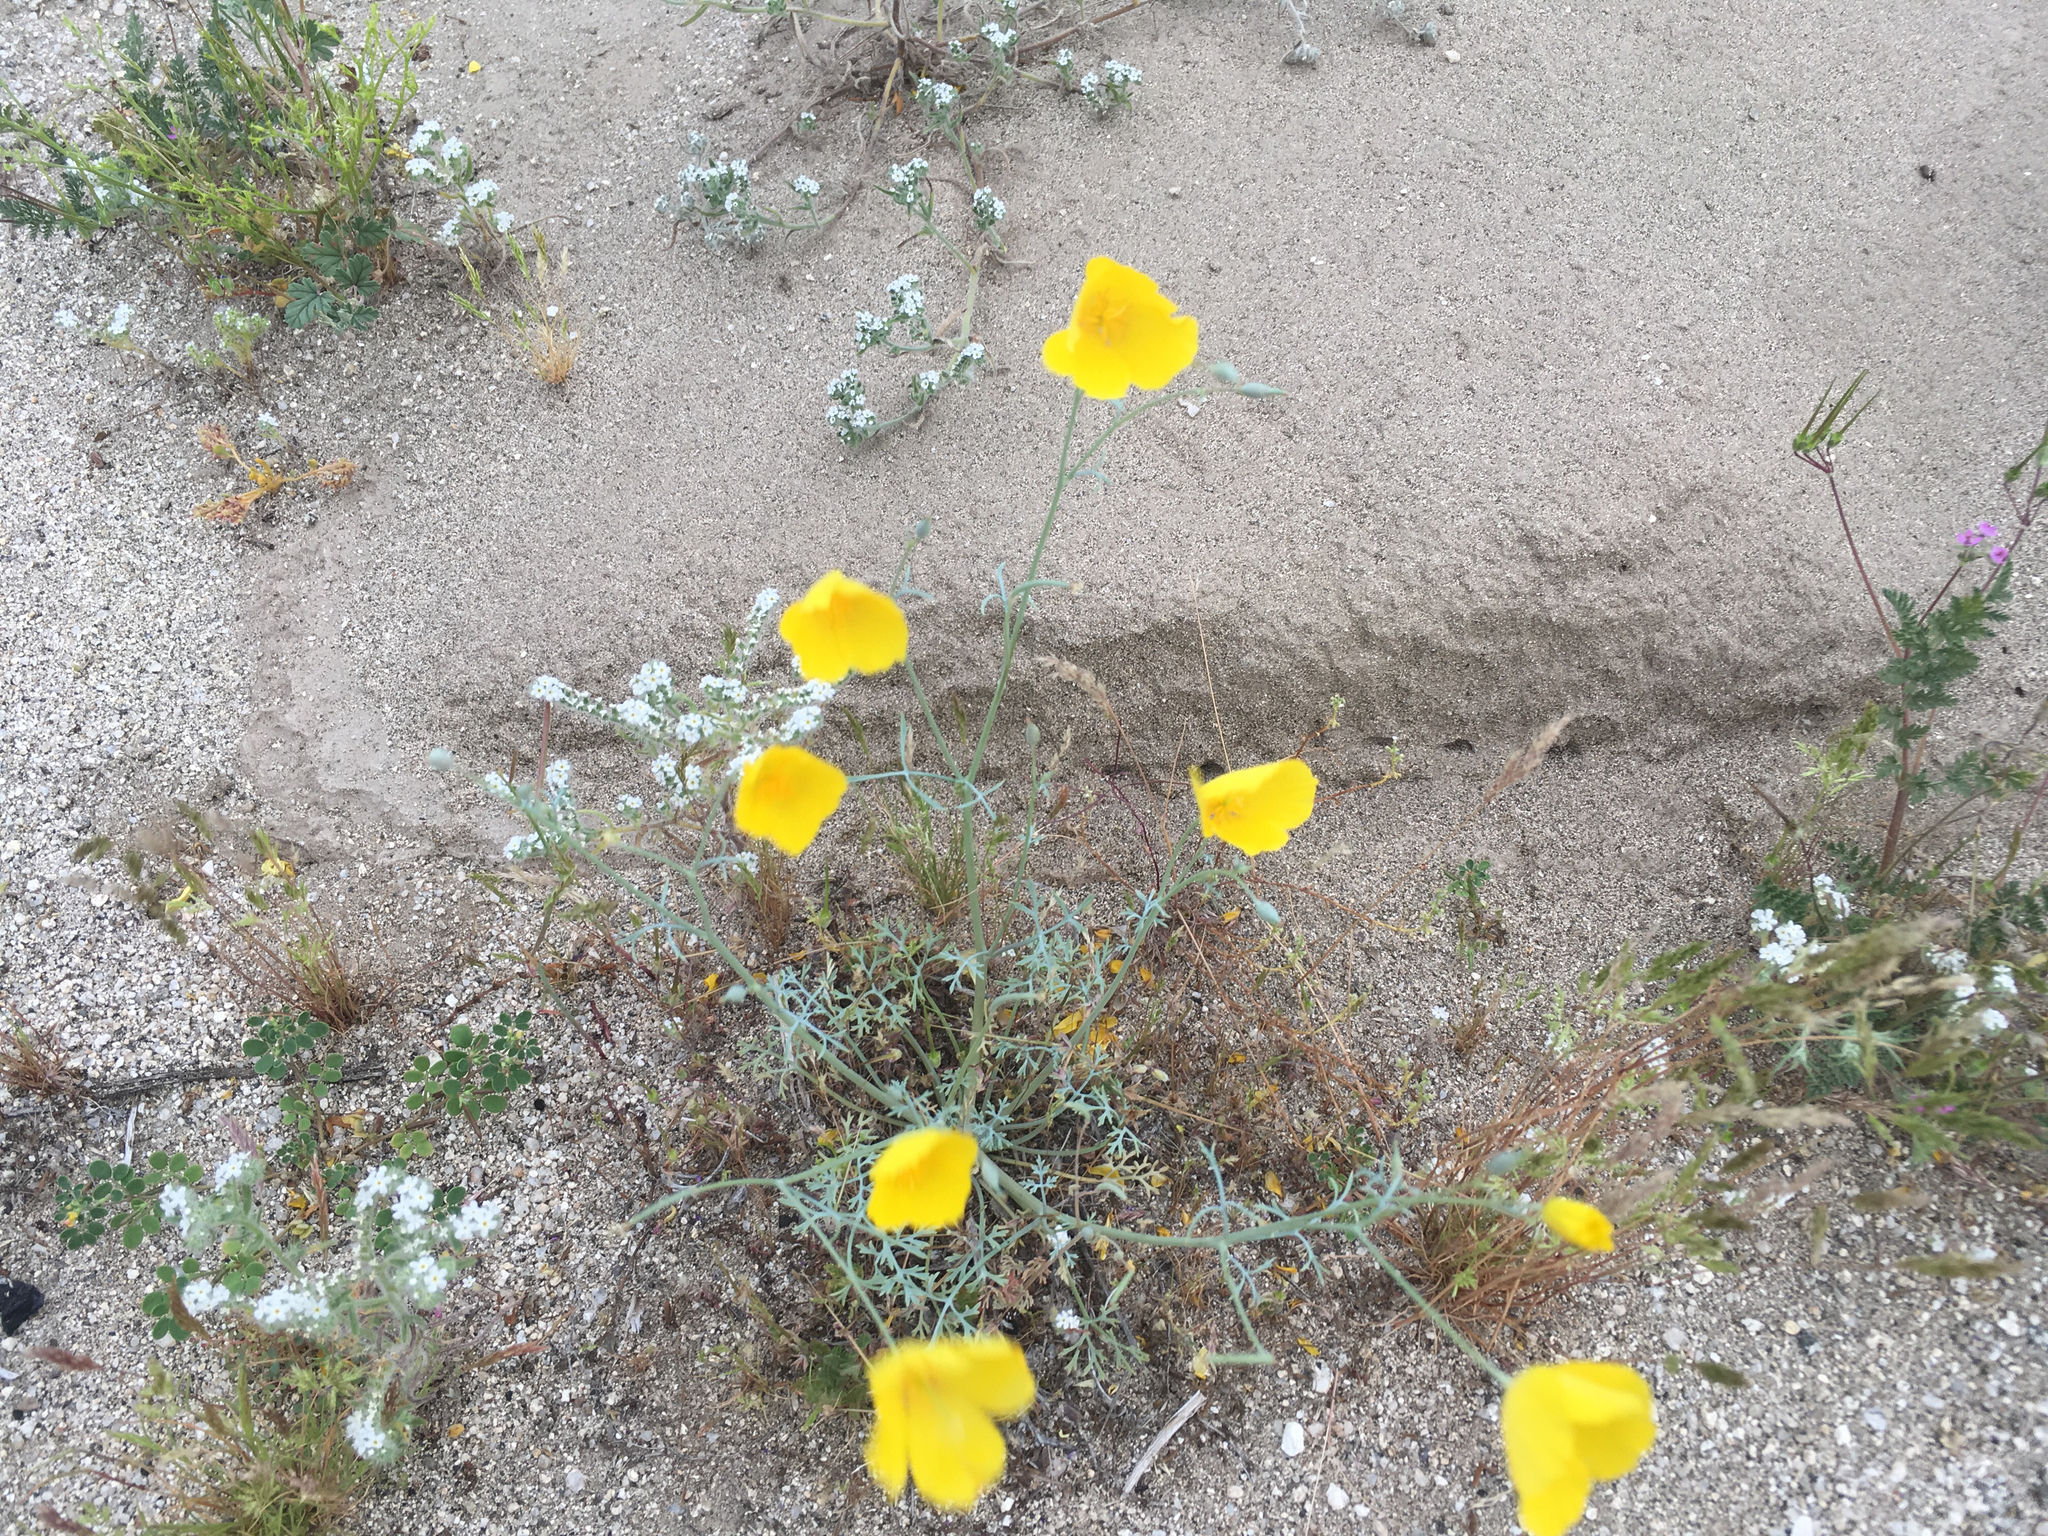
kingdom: Plantae
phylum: Tracheophyta
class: Magnoliopsida
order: Ranunculales
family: Papaveraceae
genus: Eschscholzia
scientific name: Eschscholzia parishii
